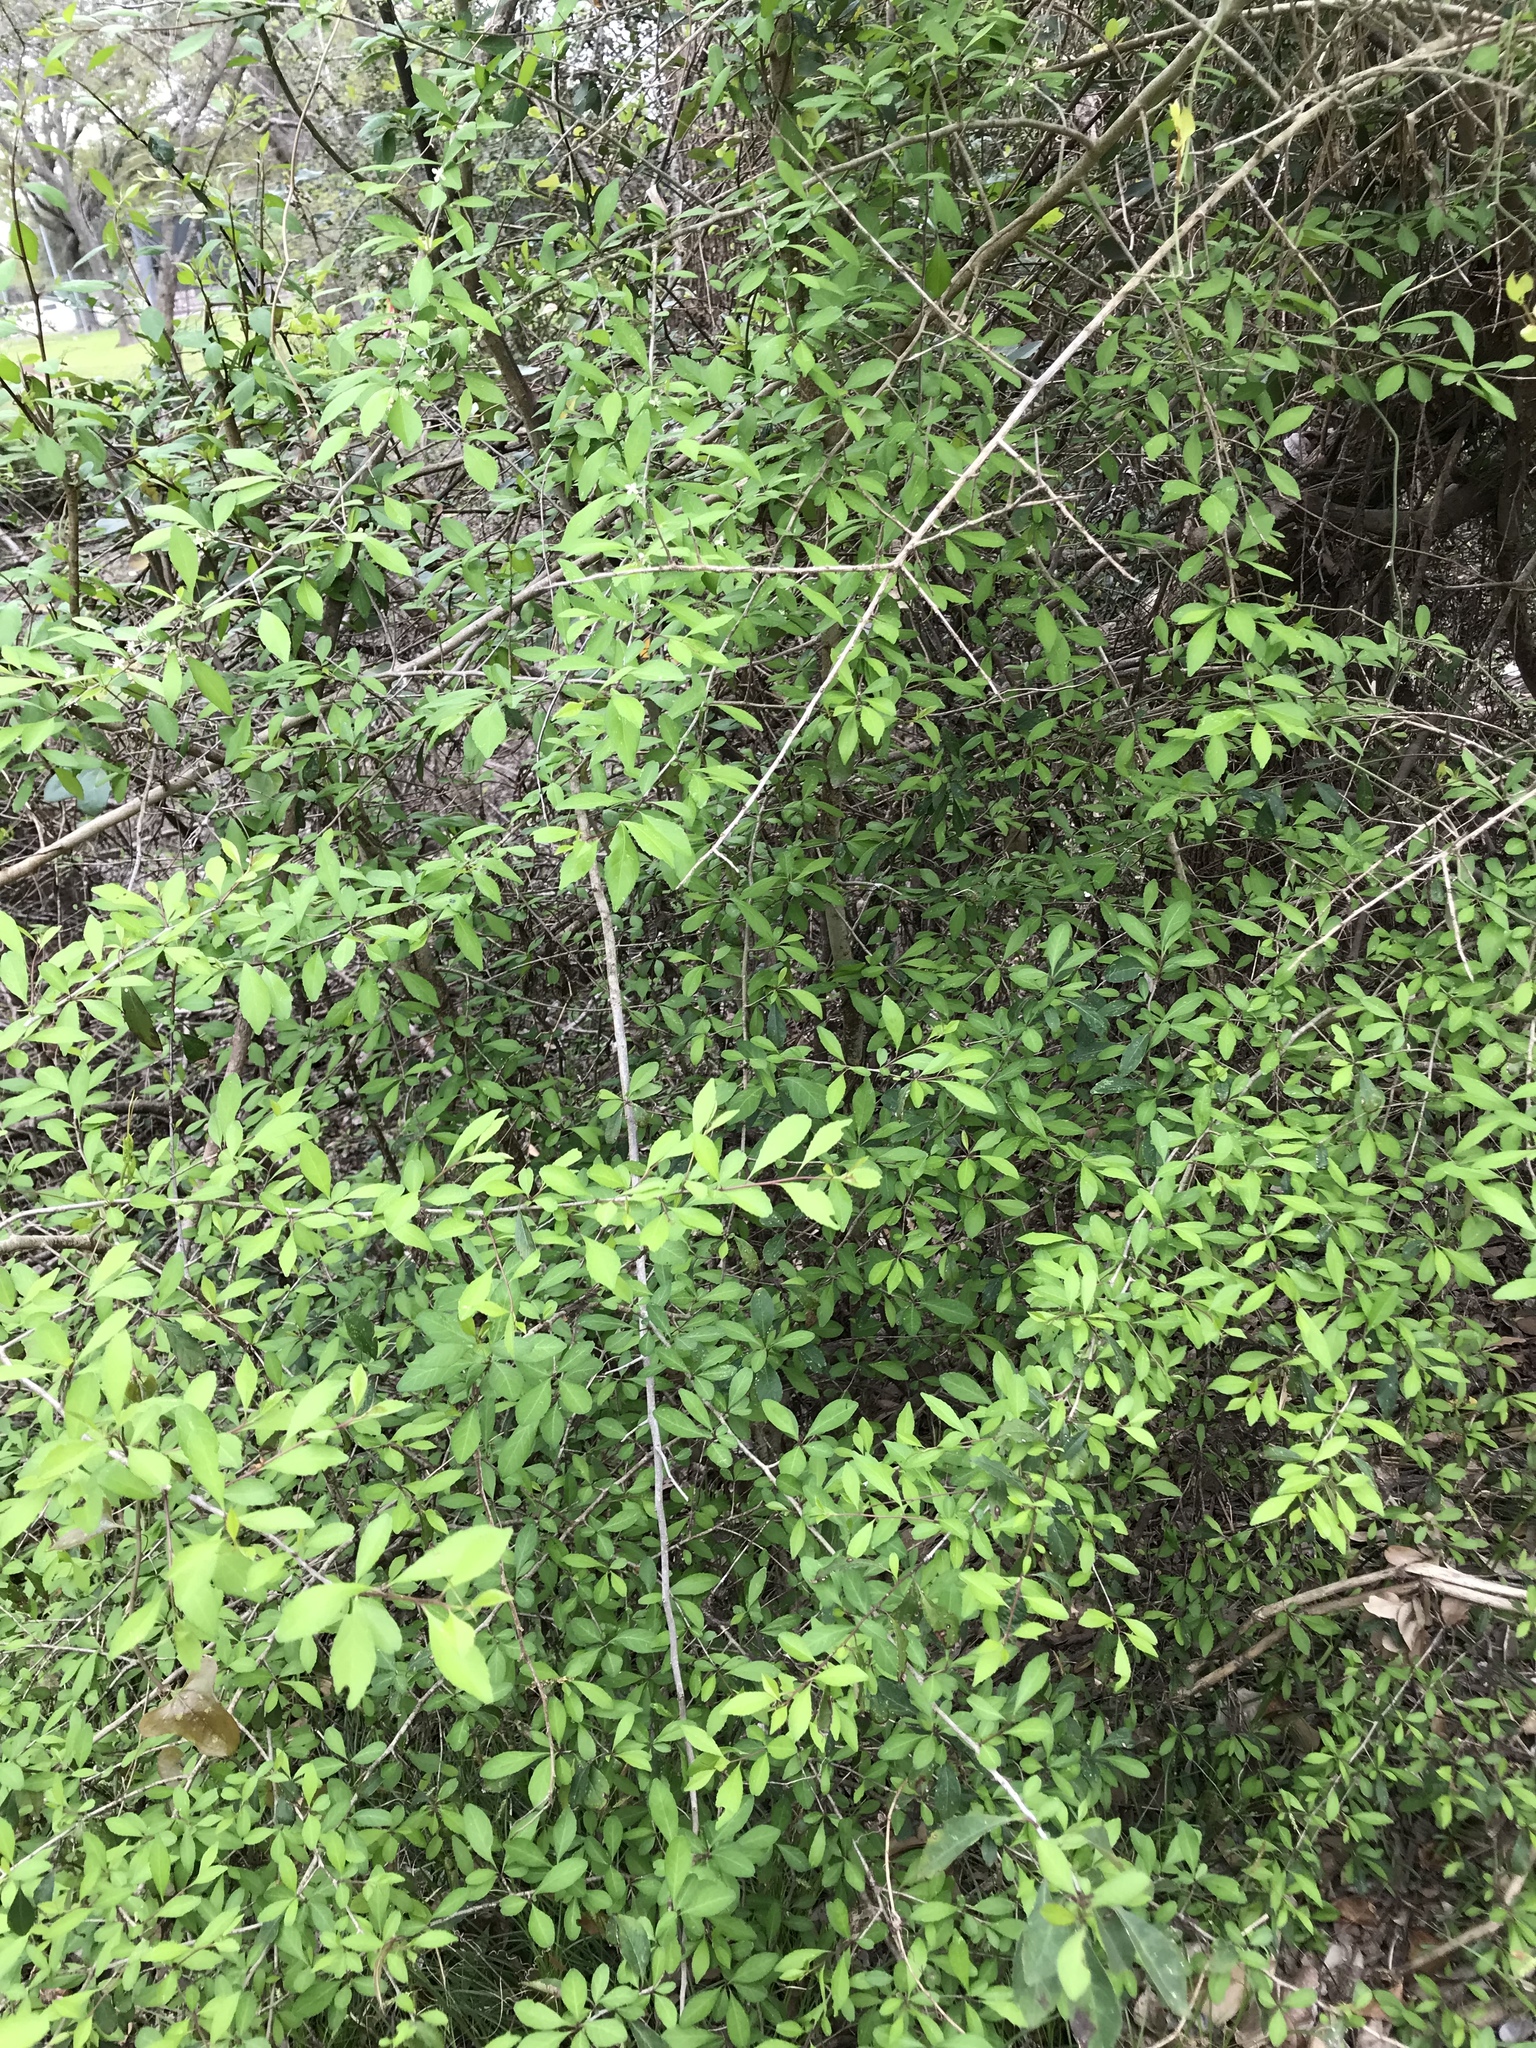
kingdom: Plantae
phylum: Tracheophyta
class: Magnoliopsida
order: Aquifoliales
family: Aquifoliaceae
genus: Ilex
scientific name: Ilex decidua
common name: Possum-haw
